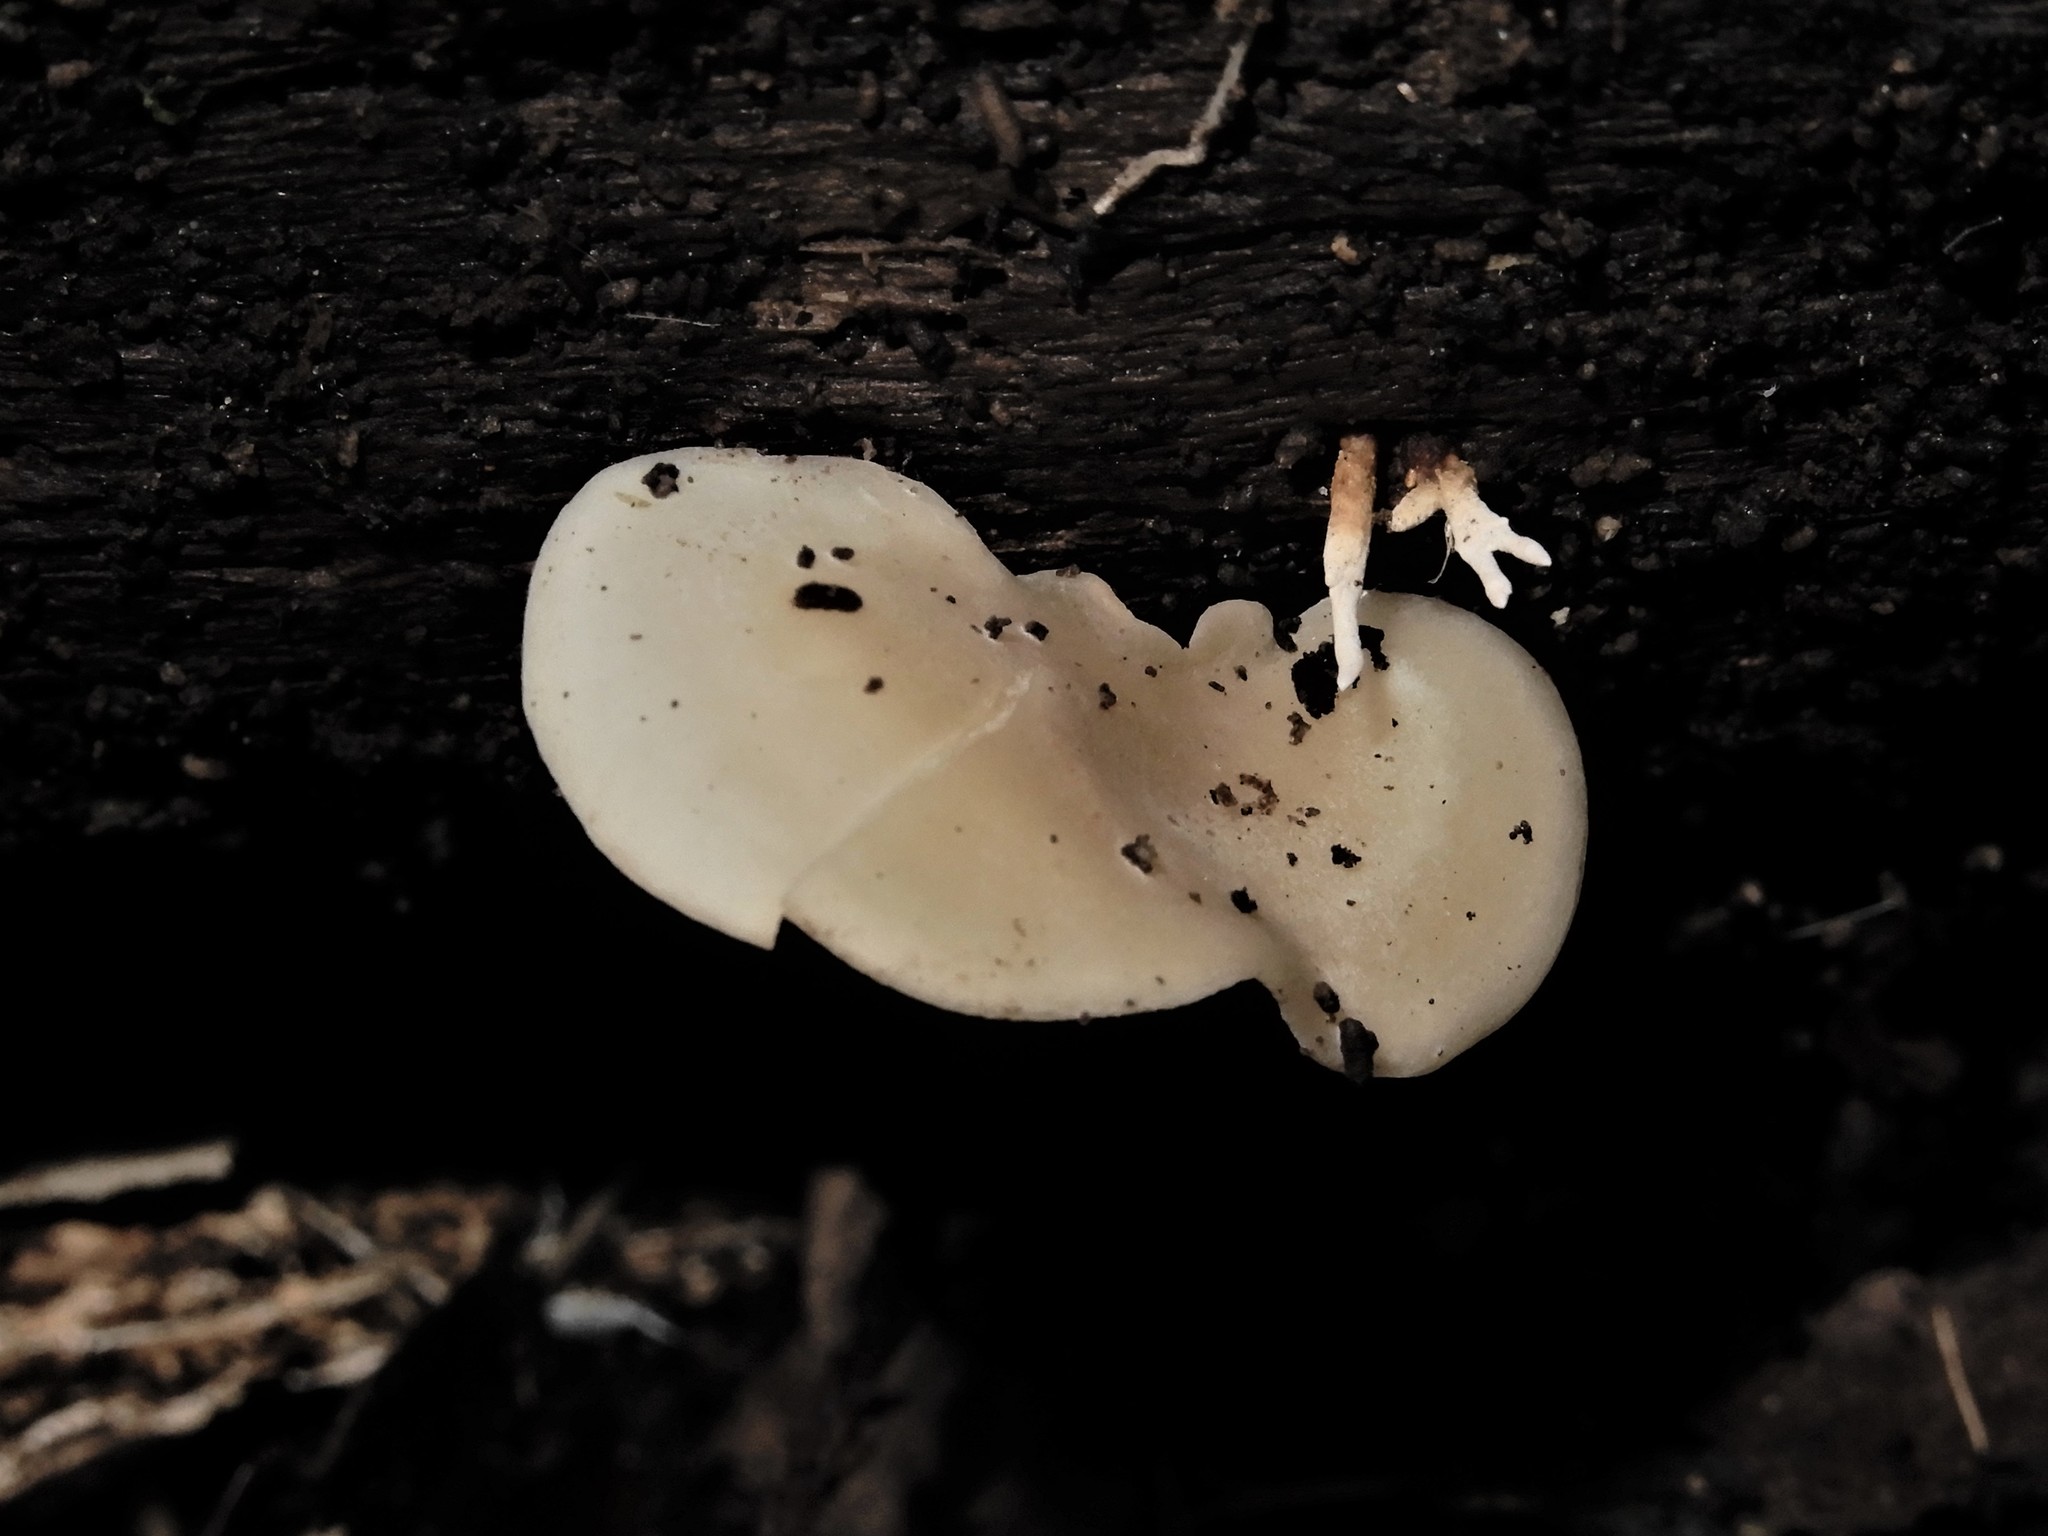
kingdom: Fungi
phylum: Basidiomycota
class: Agaricomycetes
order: Agaricales
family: Callistosporiaceae
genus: Pleurocollybia
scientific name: Pleurocollybia cremea
